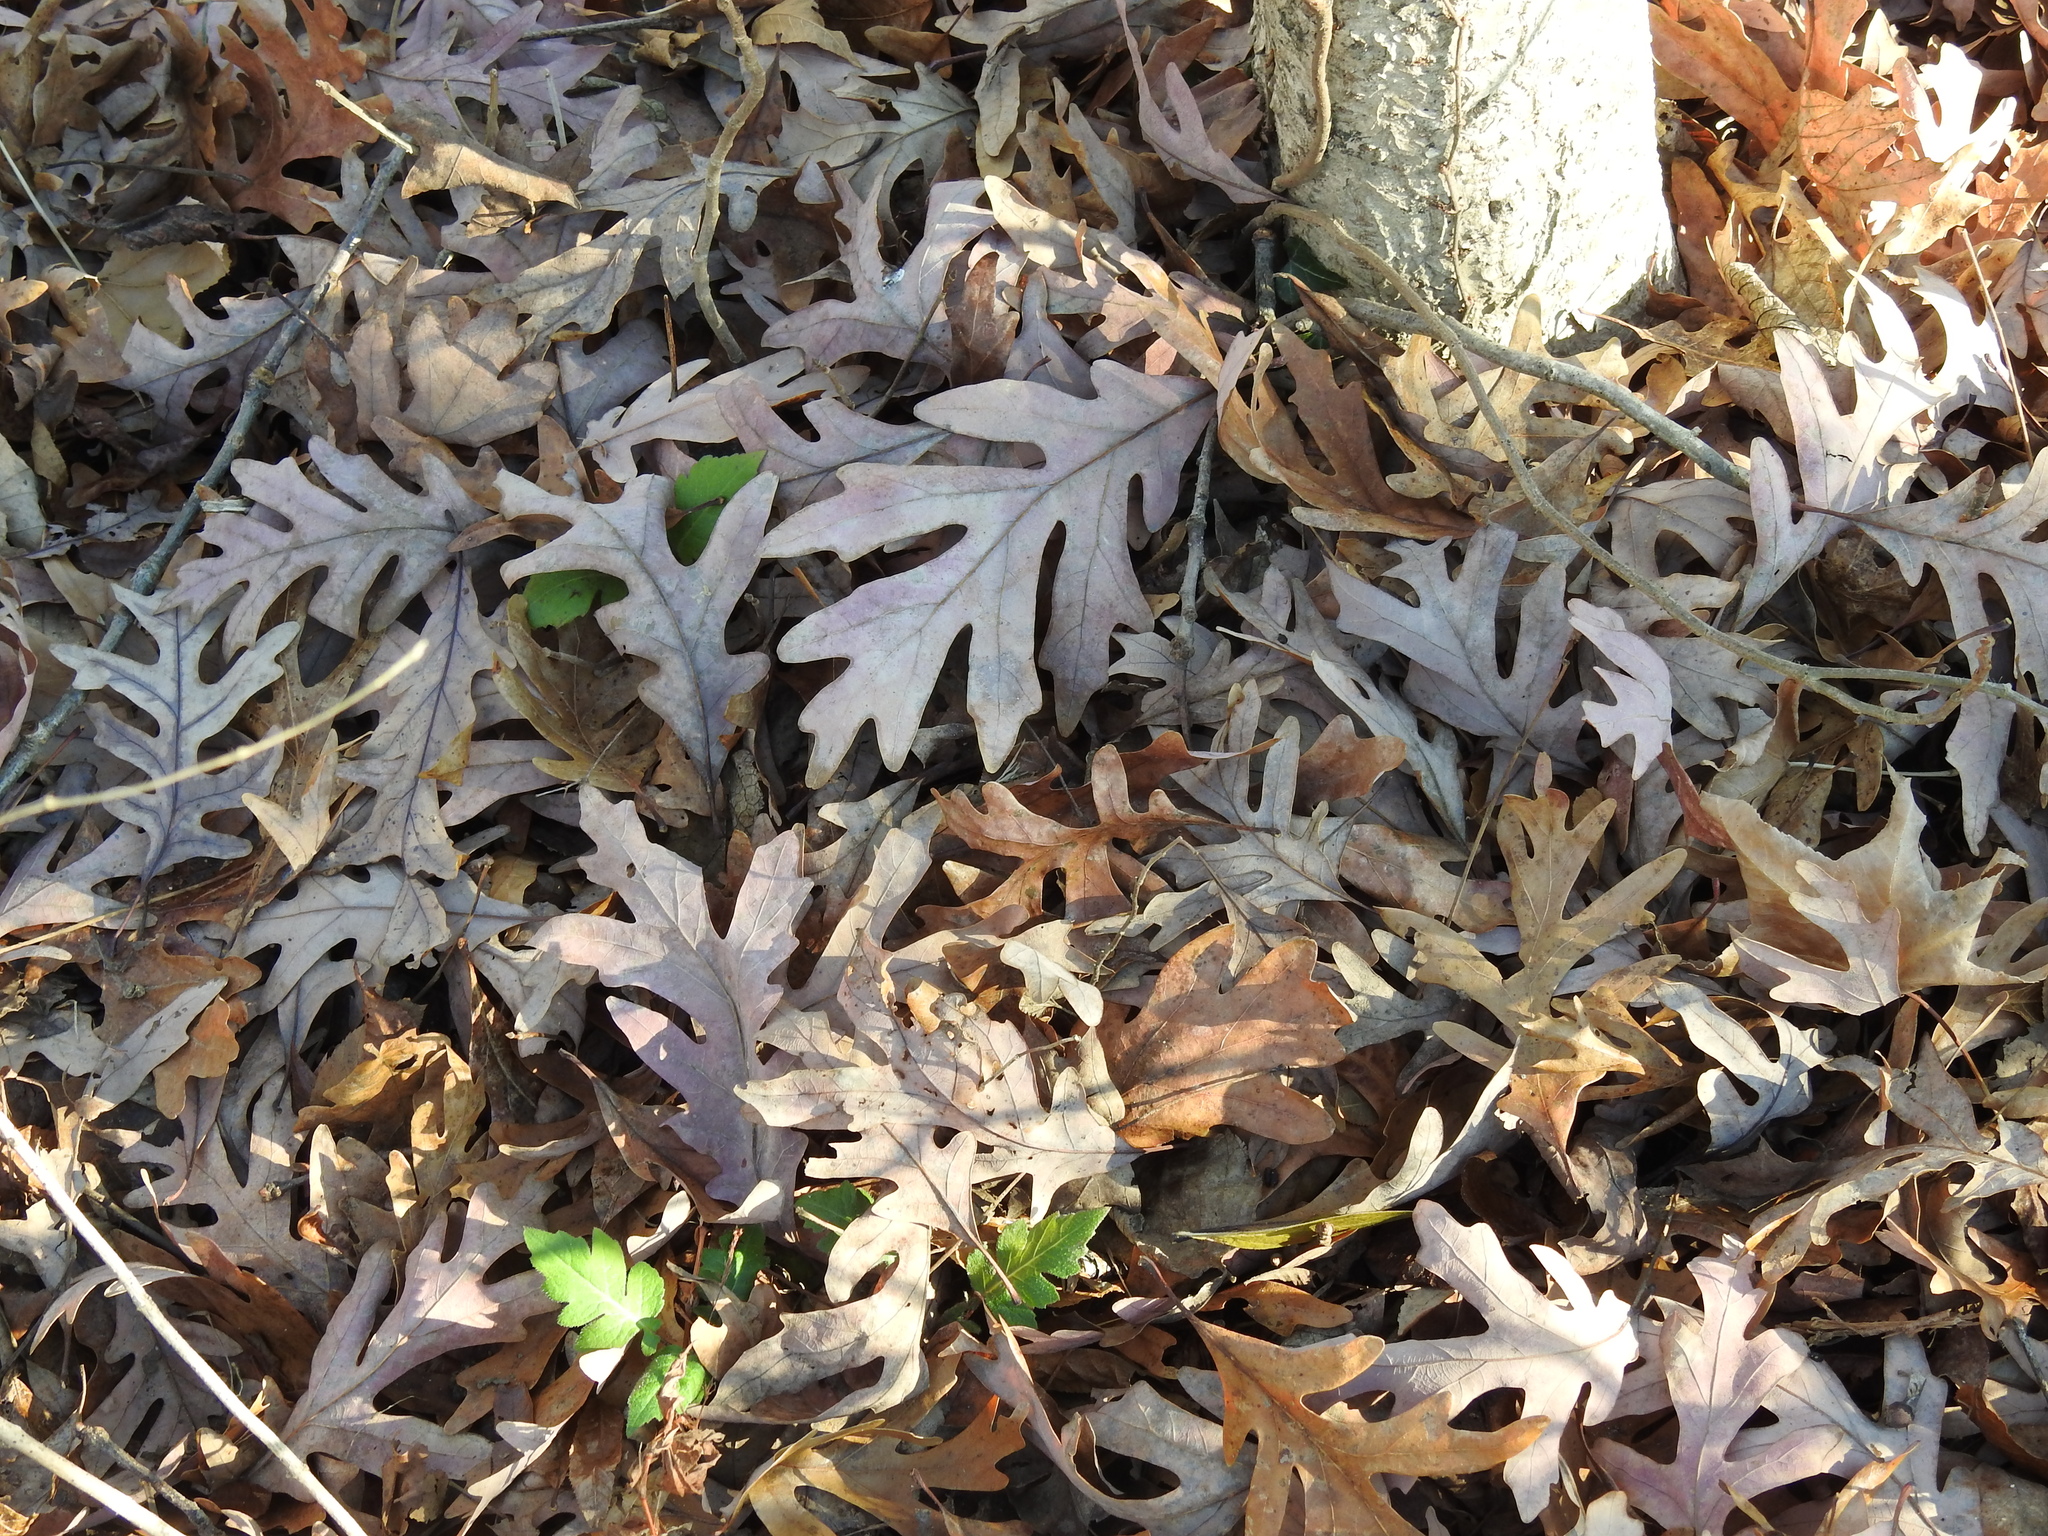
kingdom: Plantae
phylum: Tracheophyta
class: Magnoliopsida
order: Fagales
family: Fagaceae
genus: Quercus
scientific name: Quercus alba
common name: White oak
